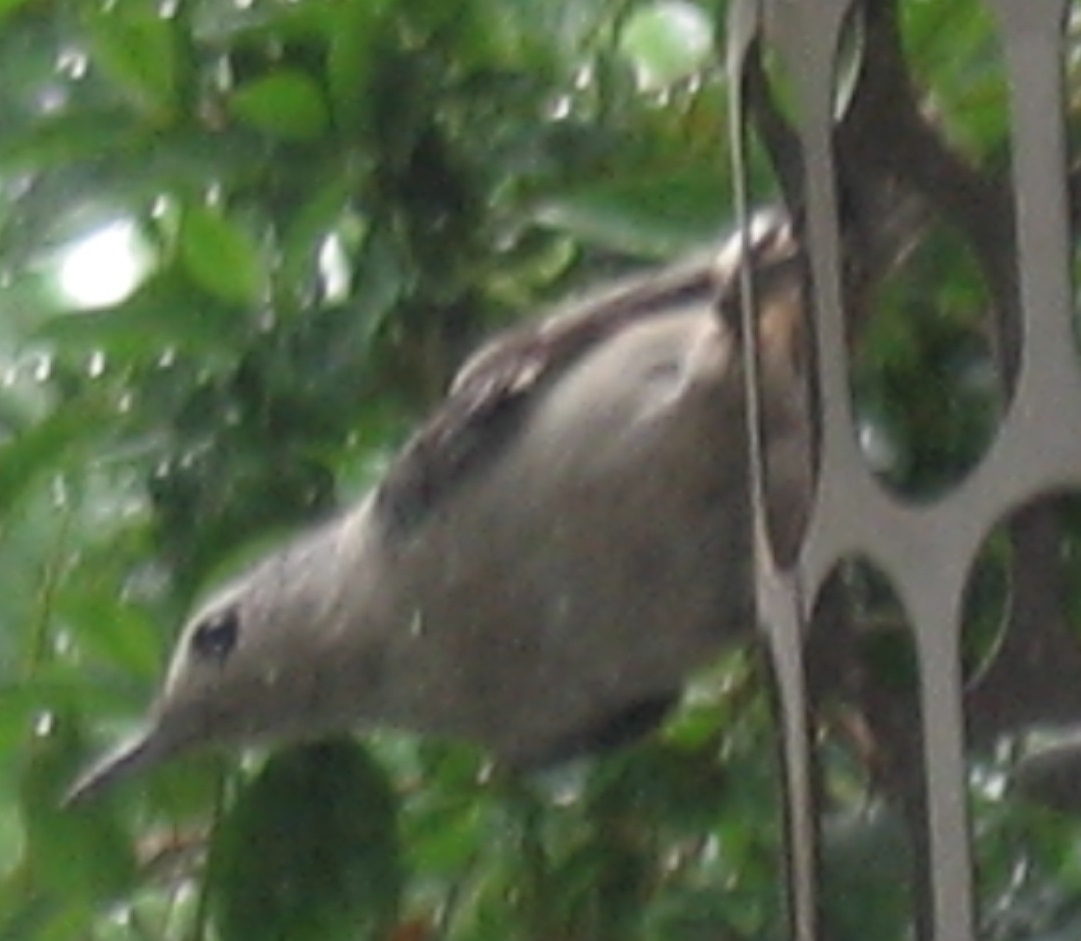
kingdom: Animalia
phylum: Chordata
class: Aves
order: Passeriformes
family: Sittidae
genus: Sitta
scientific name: Sitta carolinensis
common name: White-breasted nuthatch
